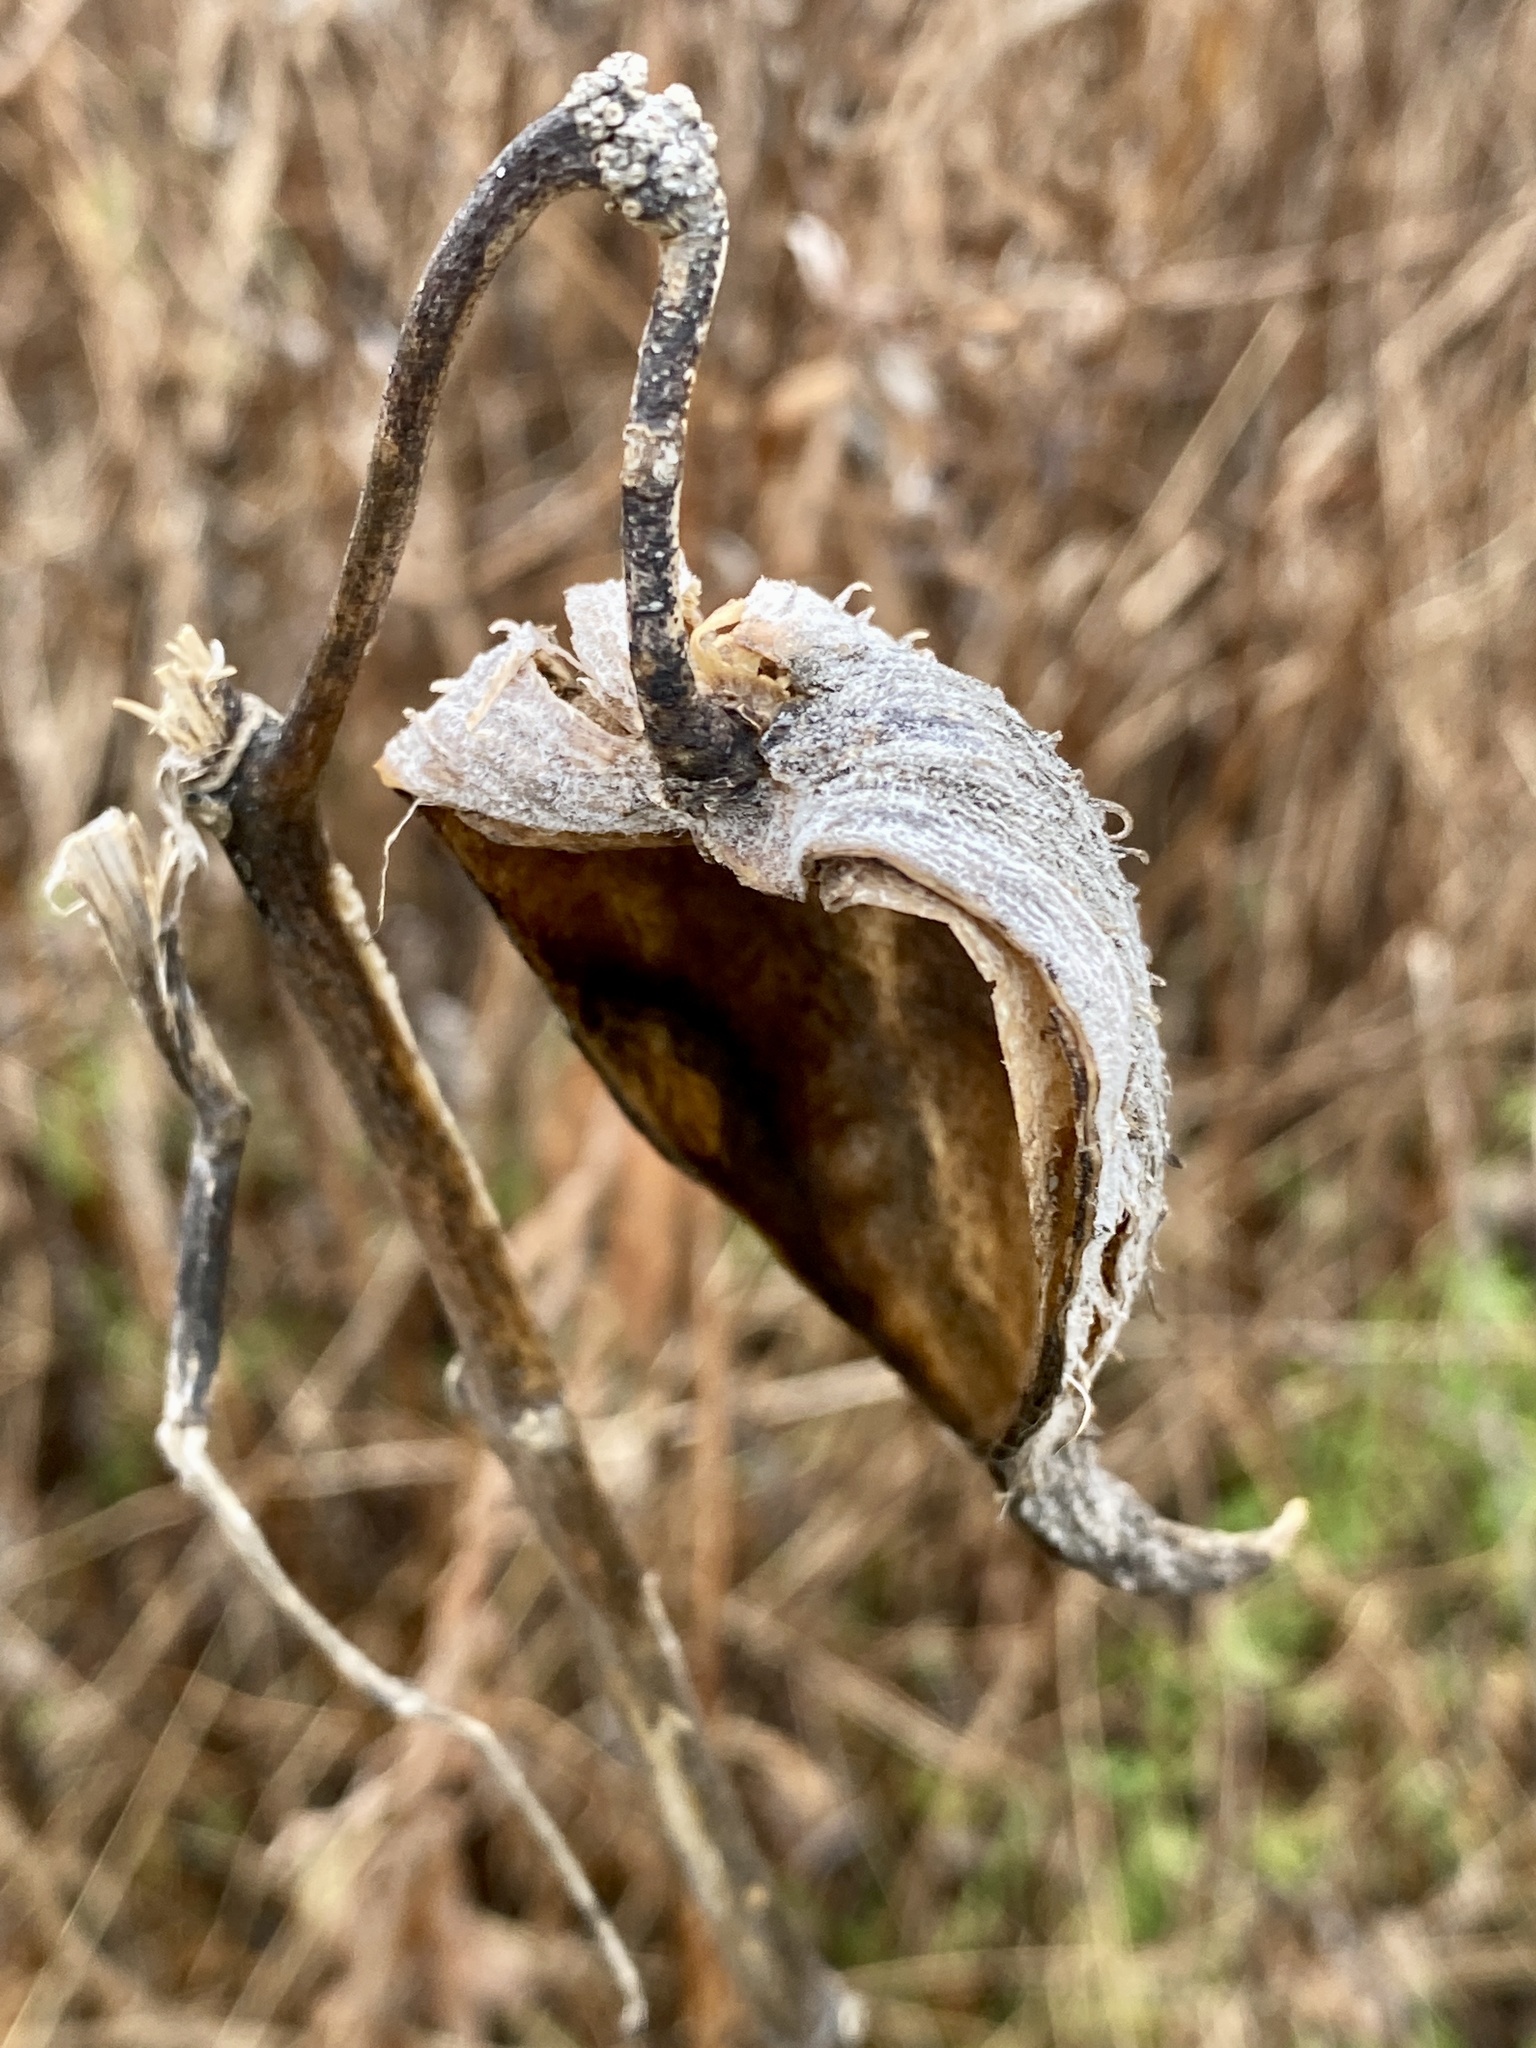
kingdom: Plantae
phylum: Tracheophyta
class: Magnoliopsida
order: Gentianales
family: Apocynaceae
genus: Asclepias
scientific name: Asclepias syriaca
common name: Common milkweed
